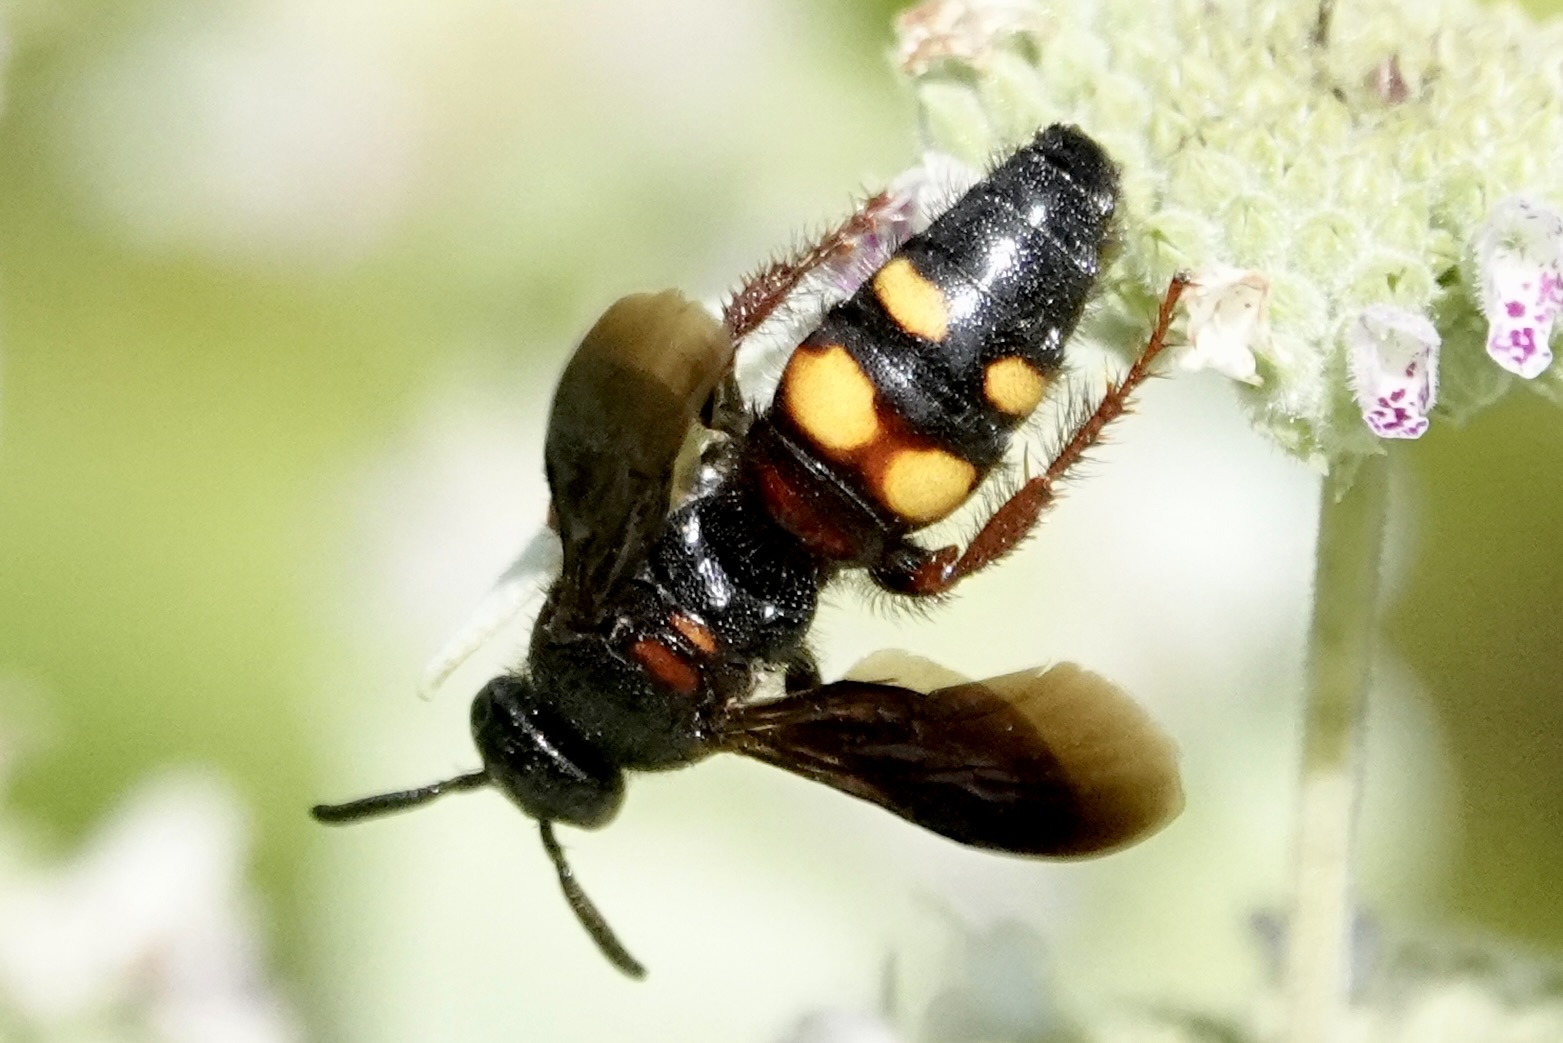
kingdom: Animalia
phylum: Arthropoda
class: Insecta
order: Hymenoptera
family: Scoliidae
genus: Scolia
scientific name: Scolia nobilitata
